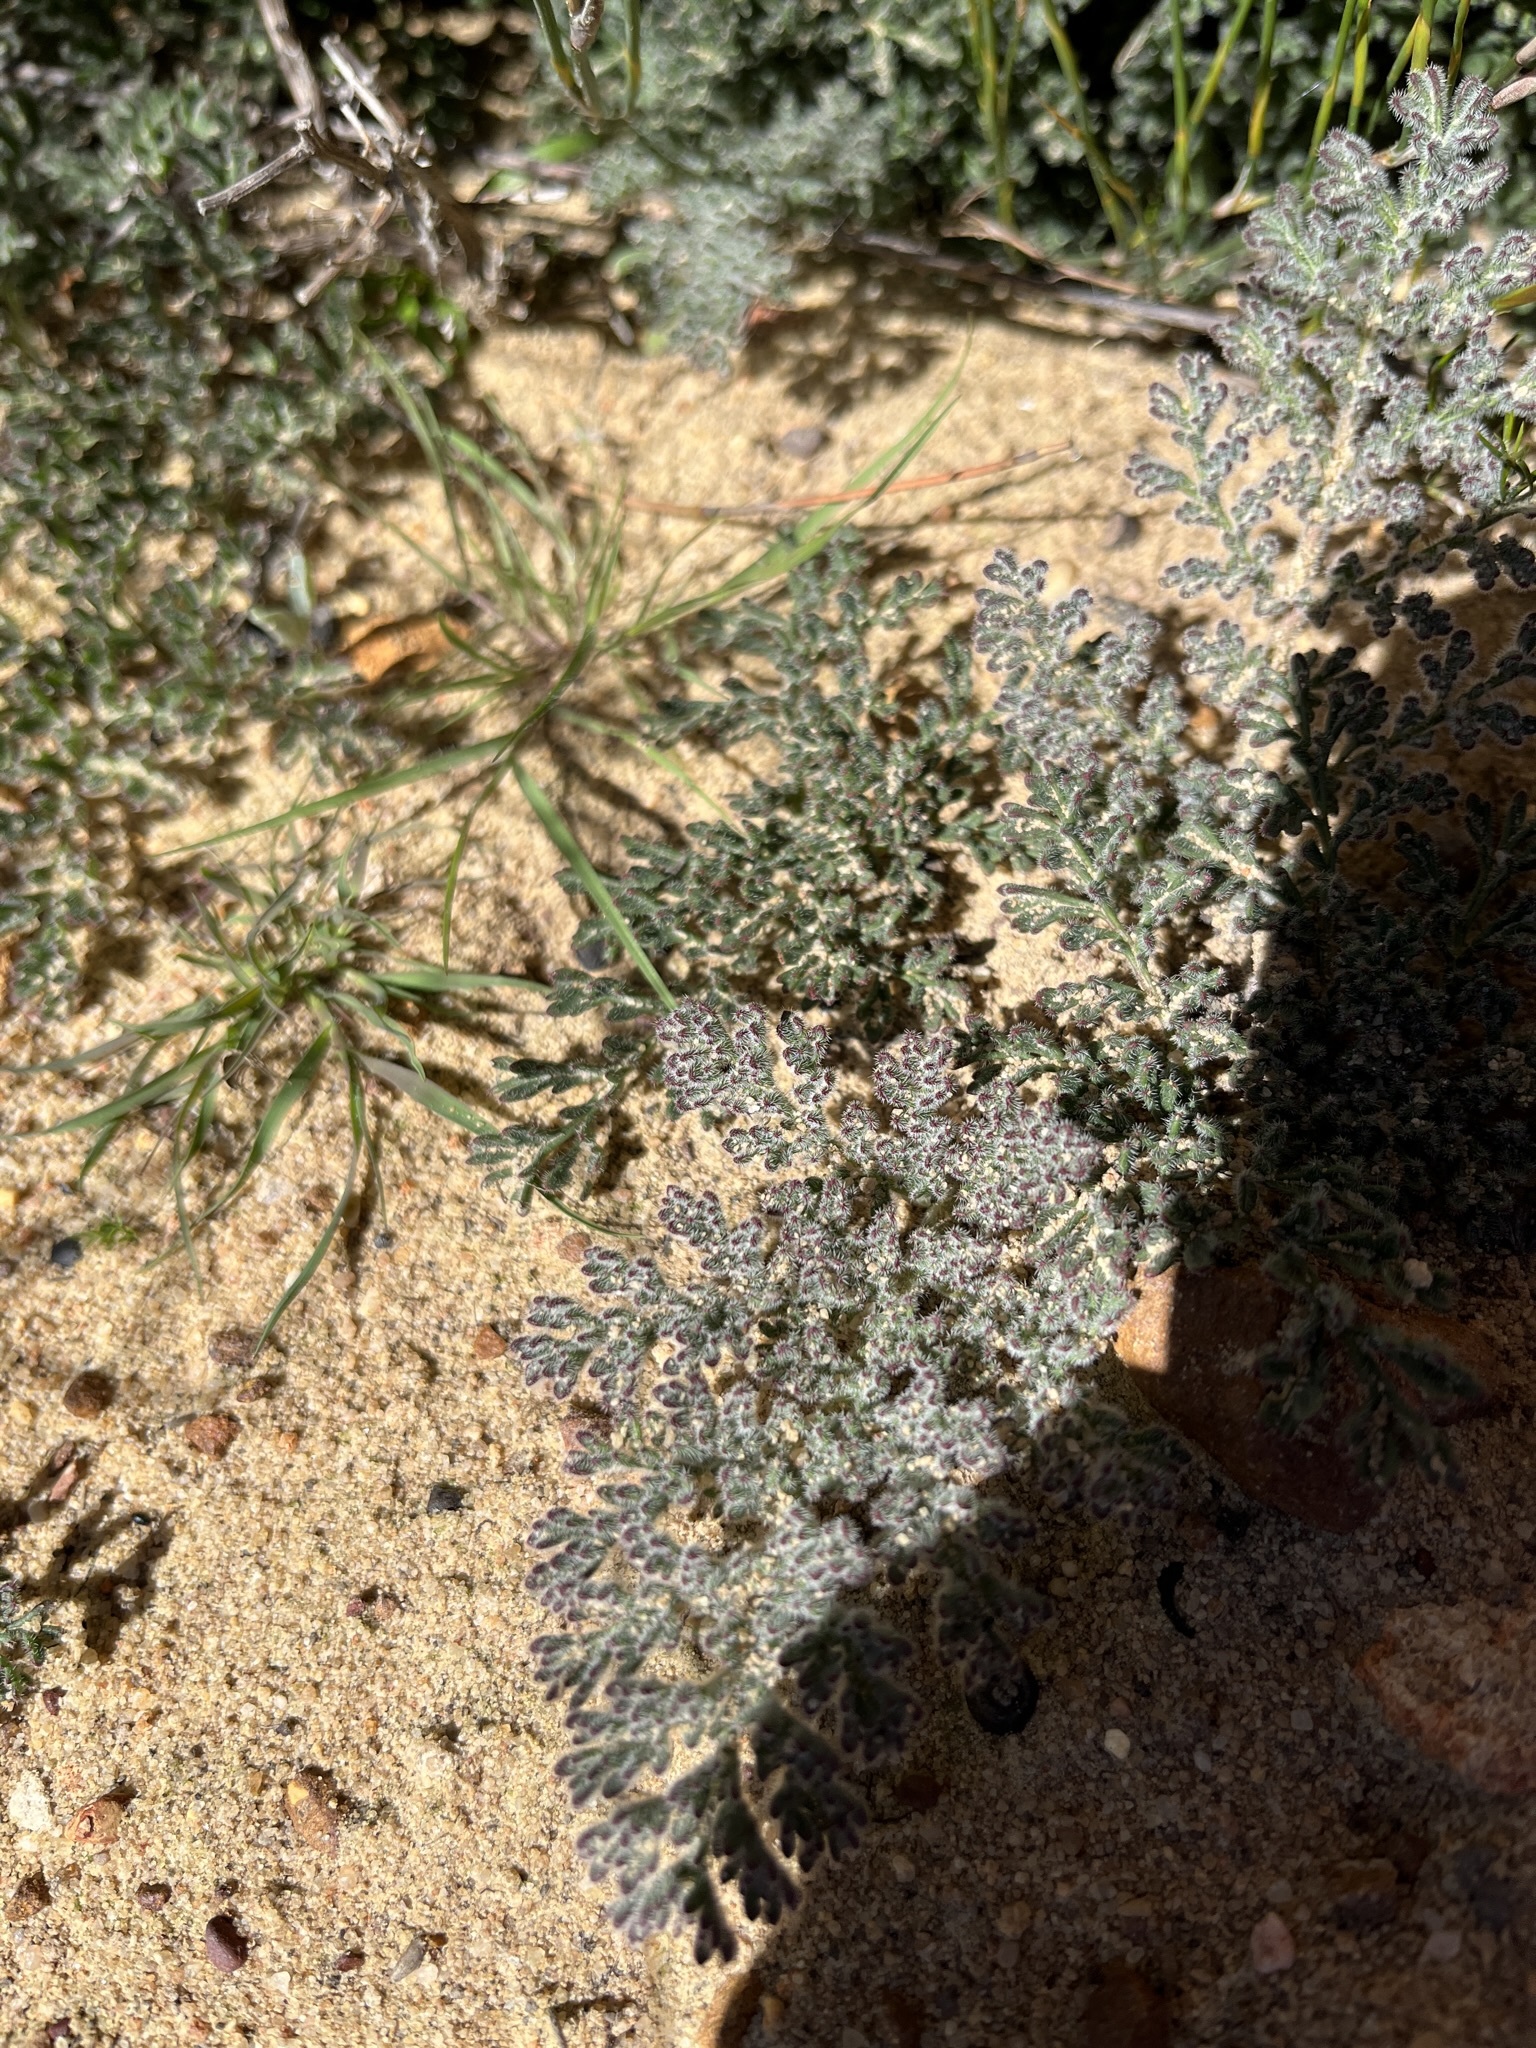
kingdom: Plantae
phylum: Tracheophyta
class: Magnoliopsida
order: Geraniales
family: Geraniaceae
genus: Pelargonium
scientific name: Pelargonium triste
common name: Night-scent pelargonium
